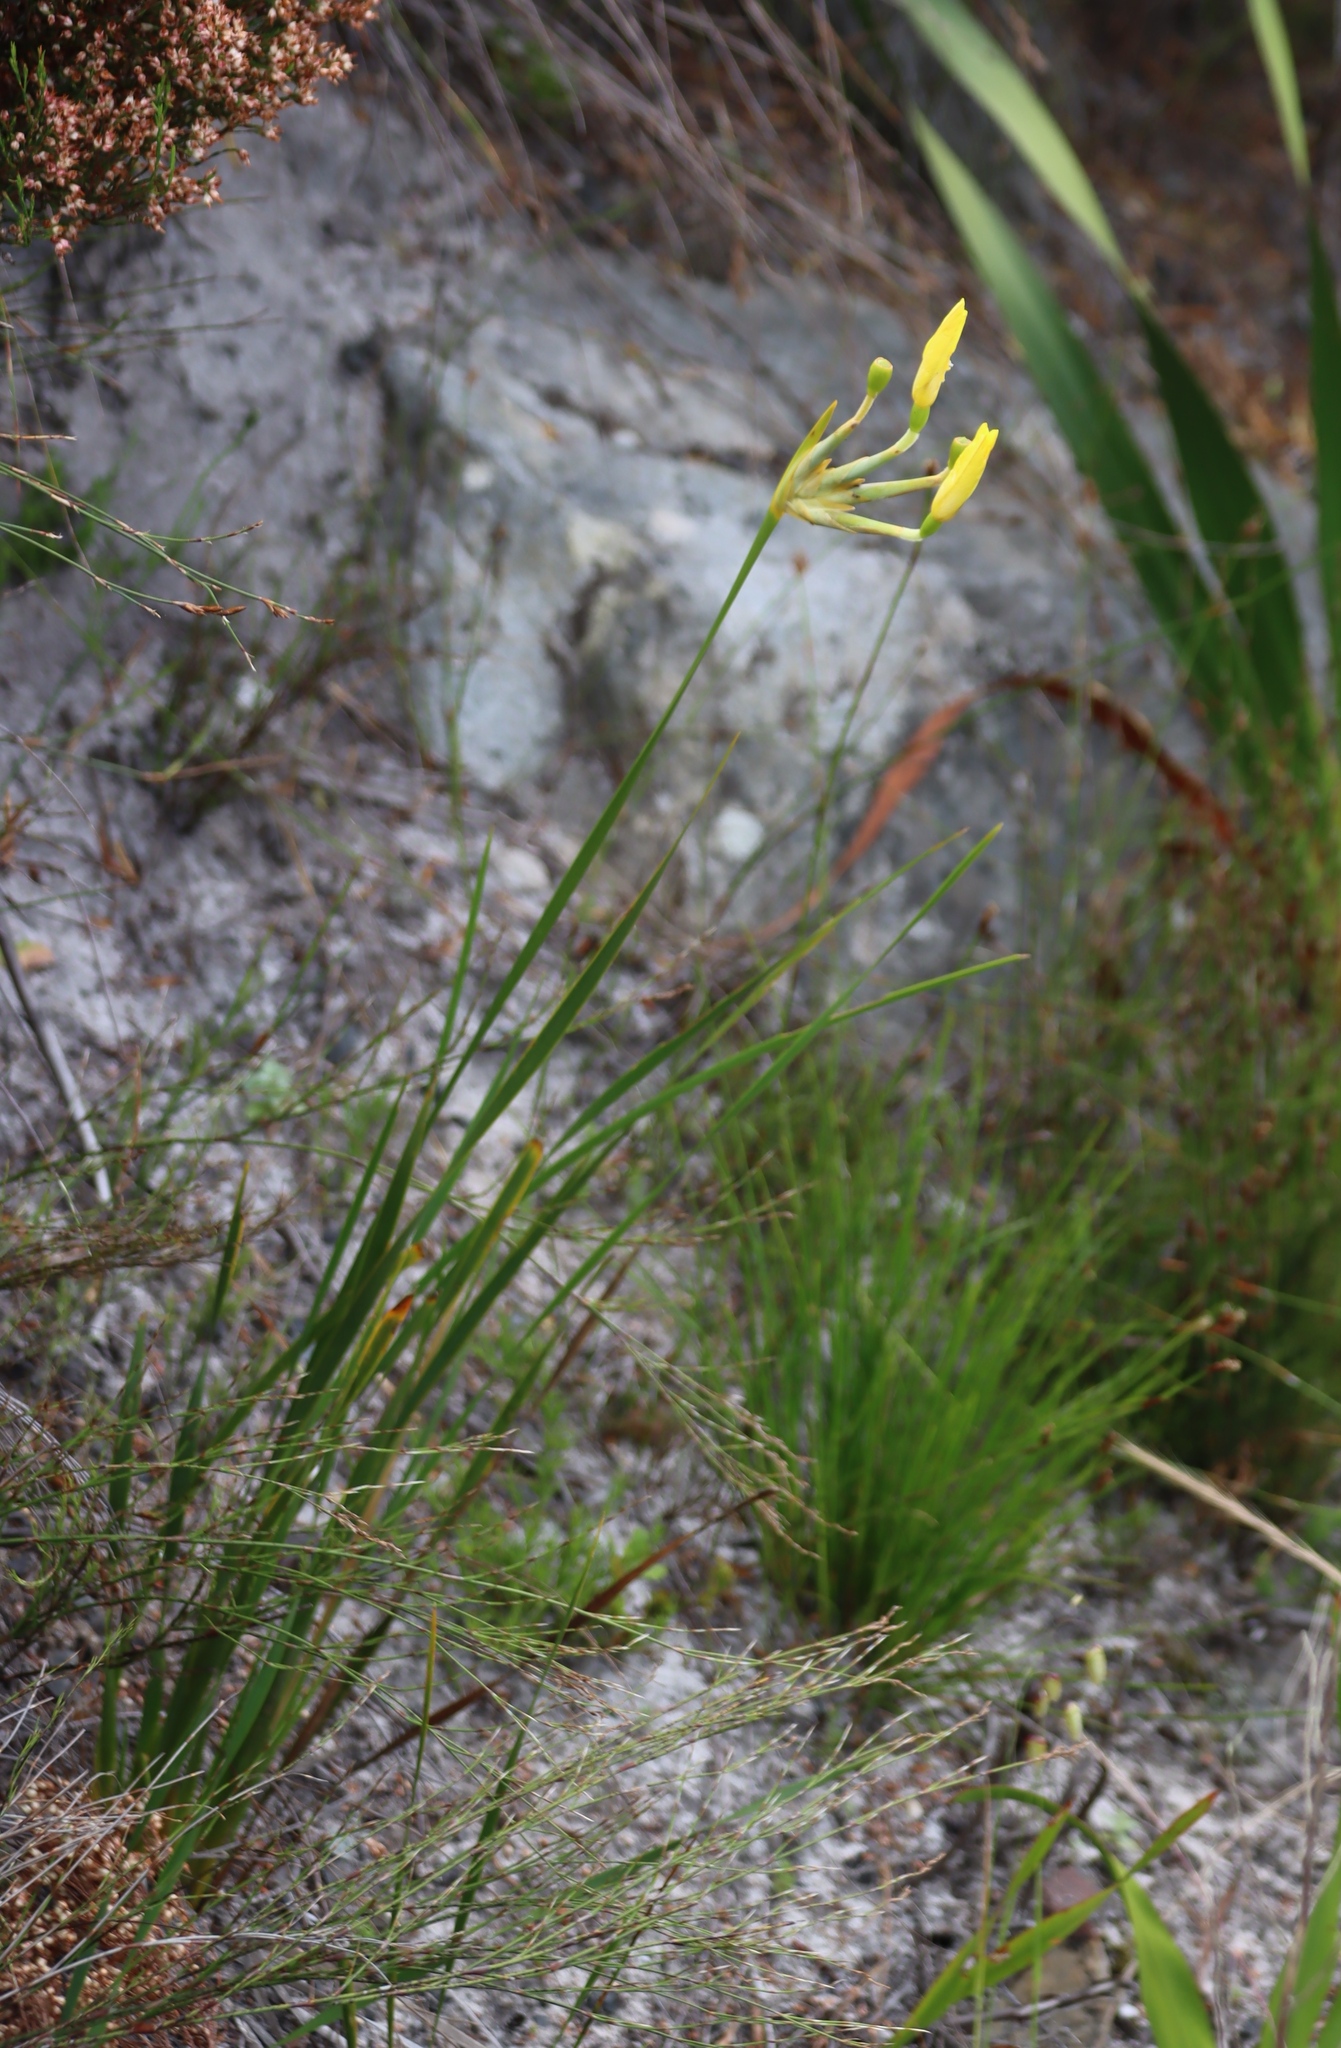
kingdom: Plantae
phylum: Tracheophyta
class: Liliopsida
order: Asparagales
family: Iridaceae
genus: Bobartia
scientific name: Bobartia gladiata
